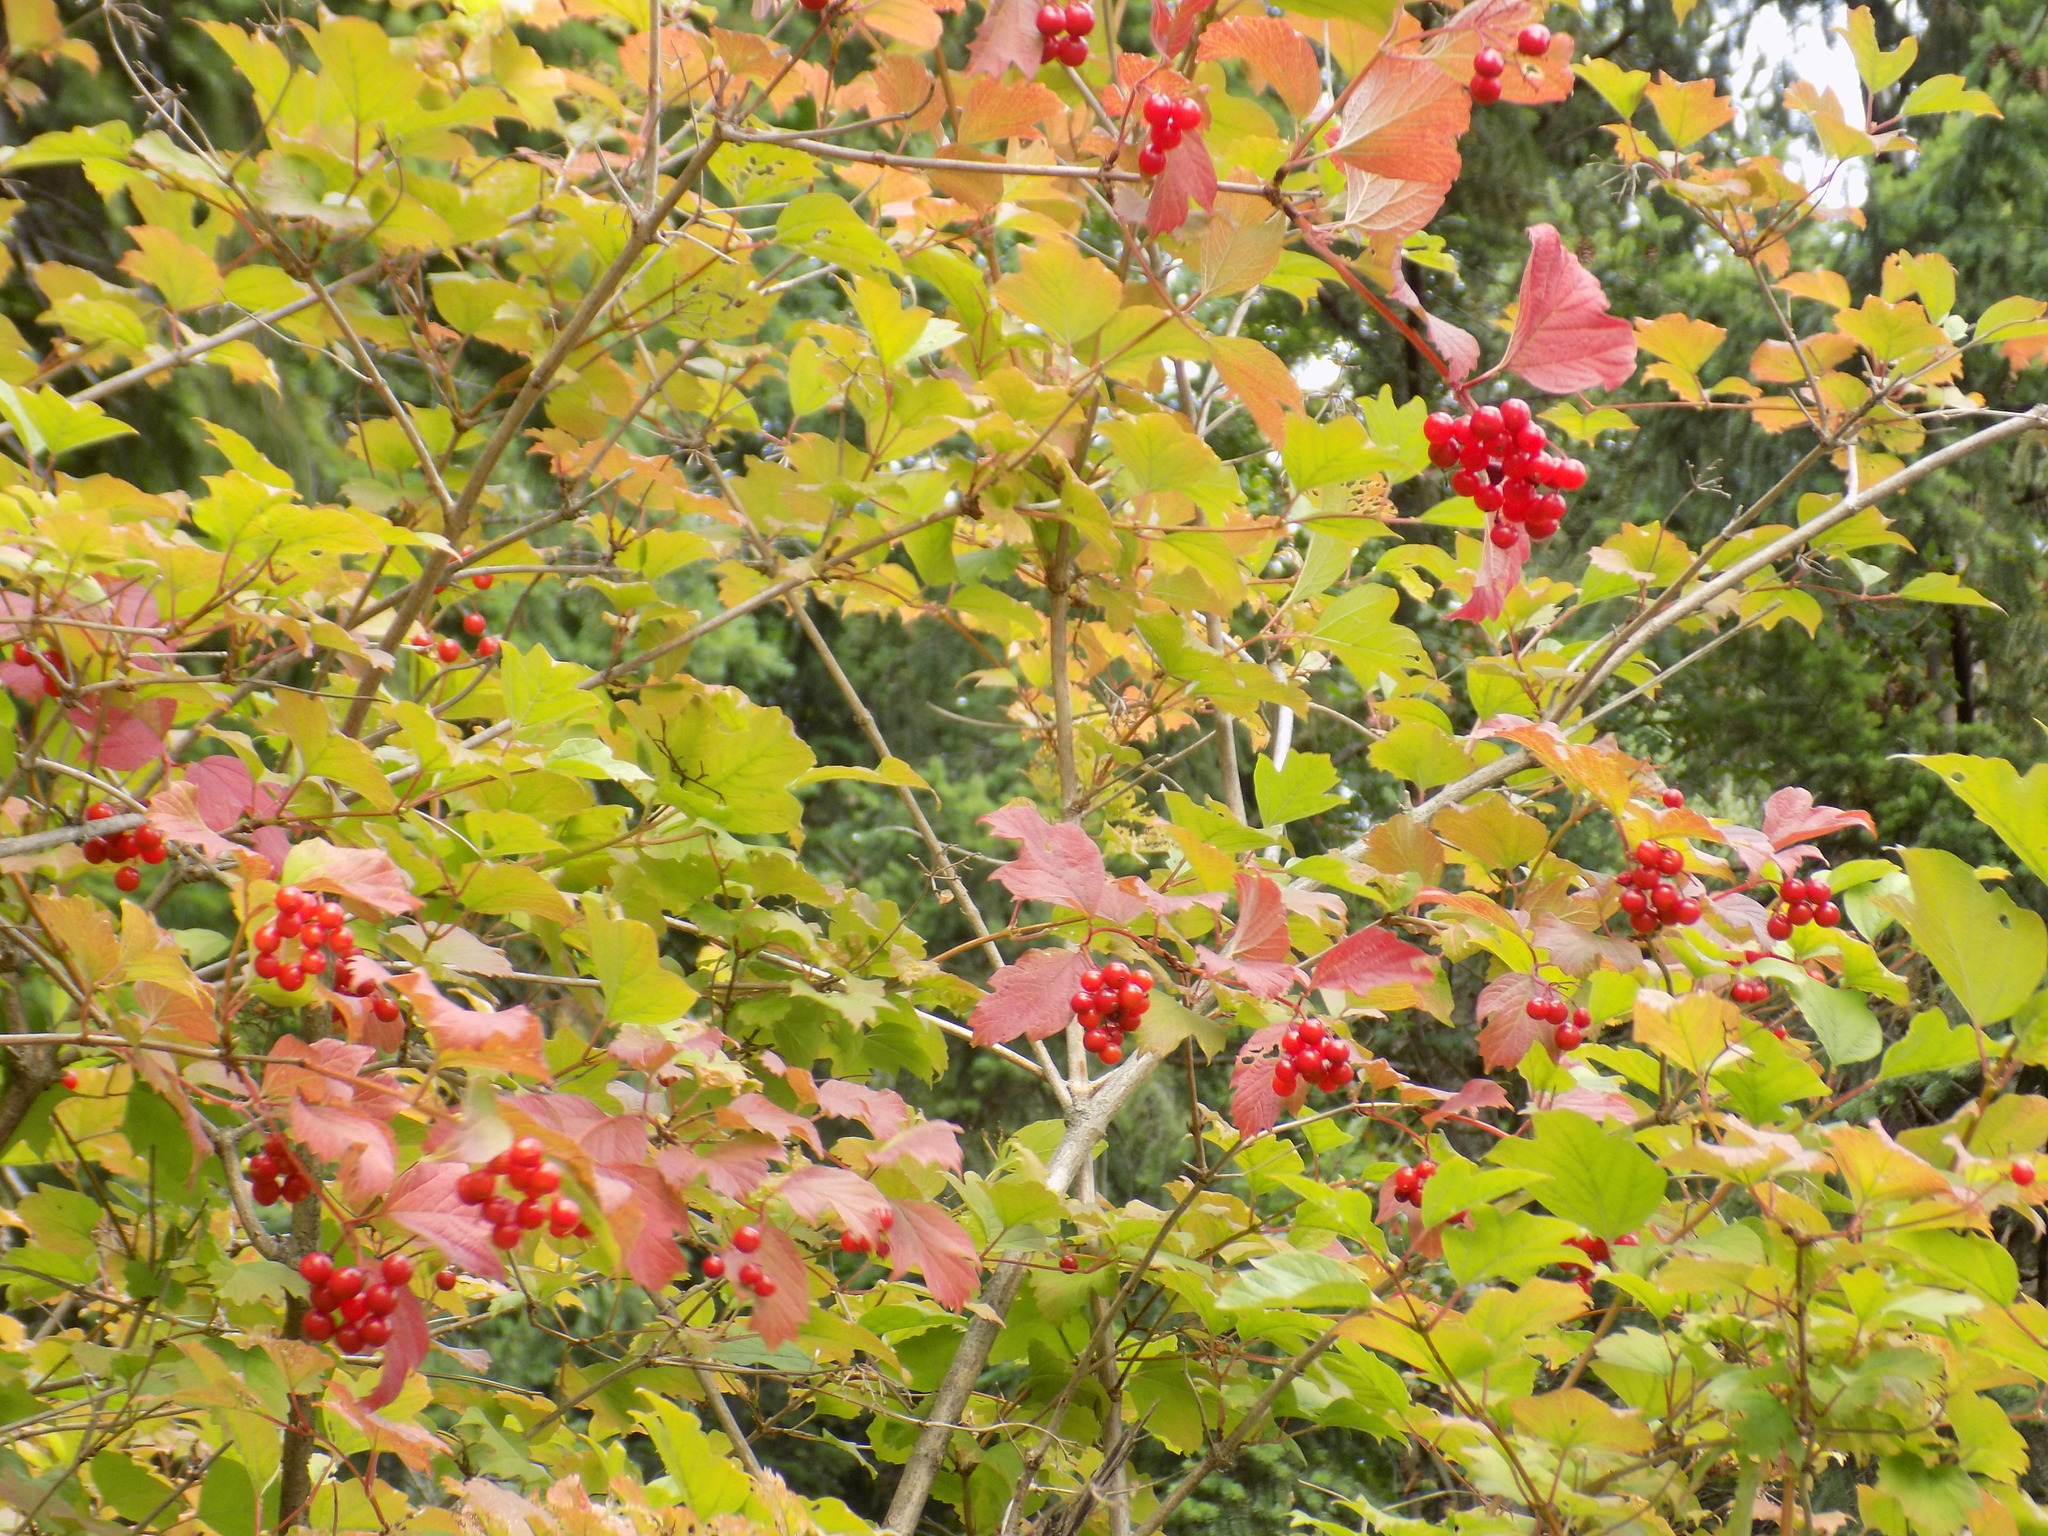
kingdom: Plantae
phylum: Tracheophyta
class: Magnoliopsida
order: Dipsacales
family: Viburnaceae
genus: Viburnum
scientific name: Viburnum opulus
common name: Guelder-rose
